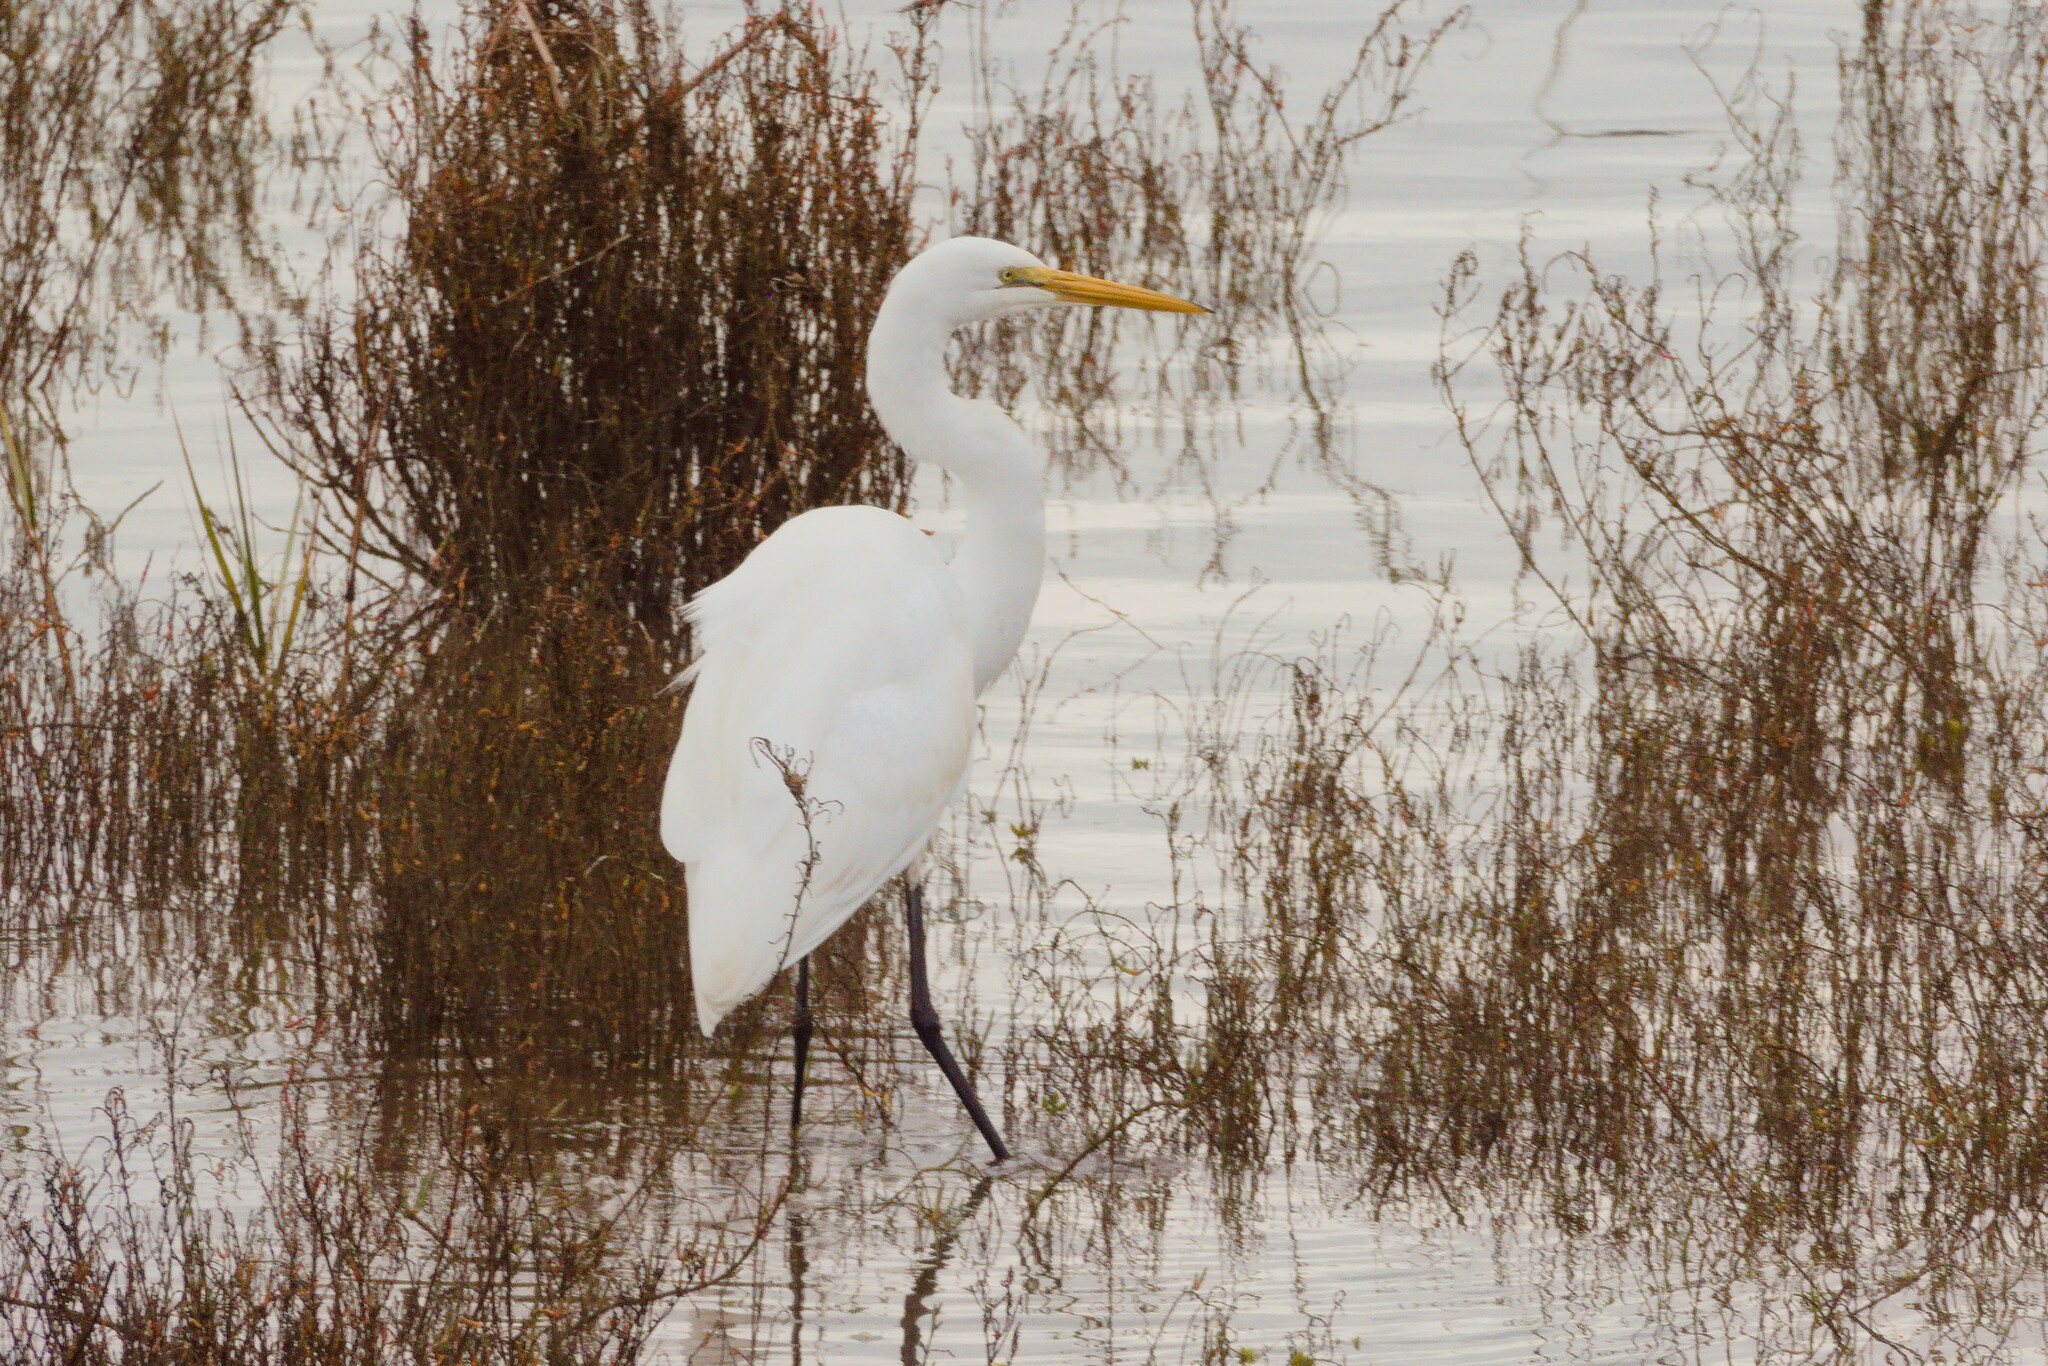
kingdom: Animalia
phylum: Chordata
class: Aves
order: Pelecaniformes
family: Ardeidae
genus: Ardea
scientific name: Ardea alba
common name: Great egret
